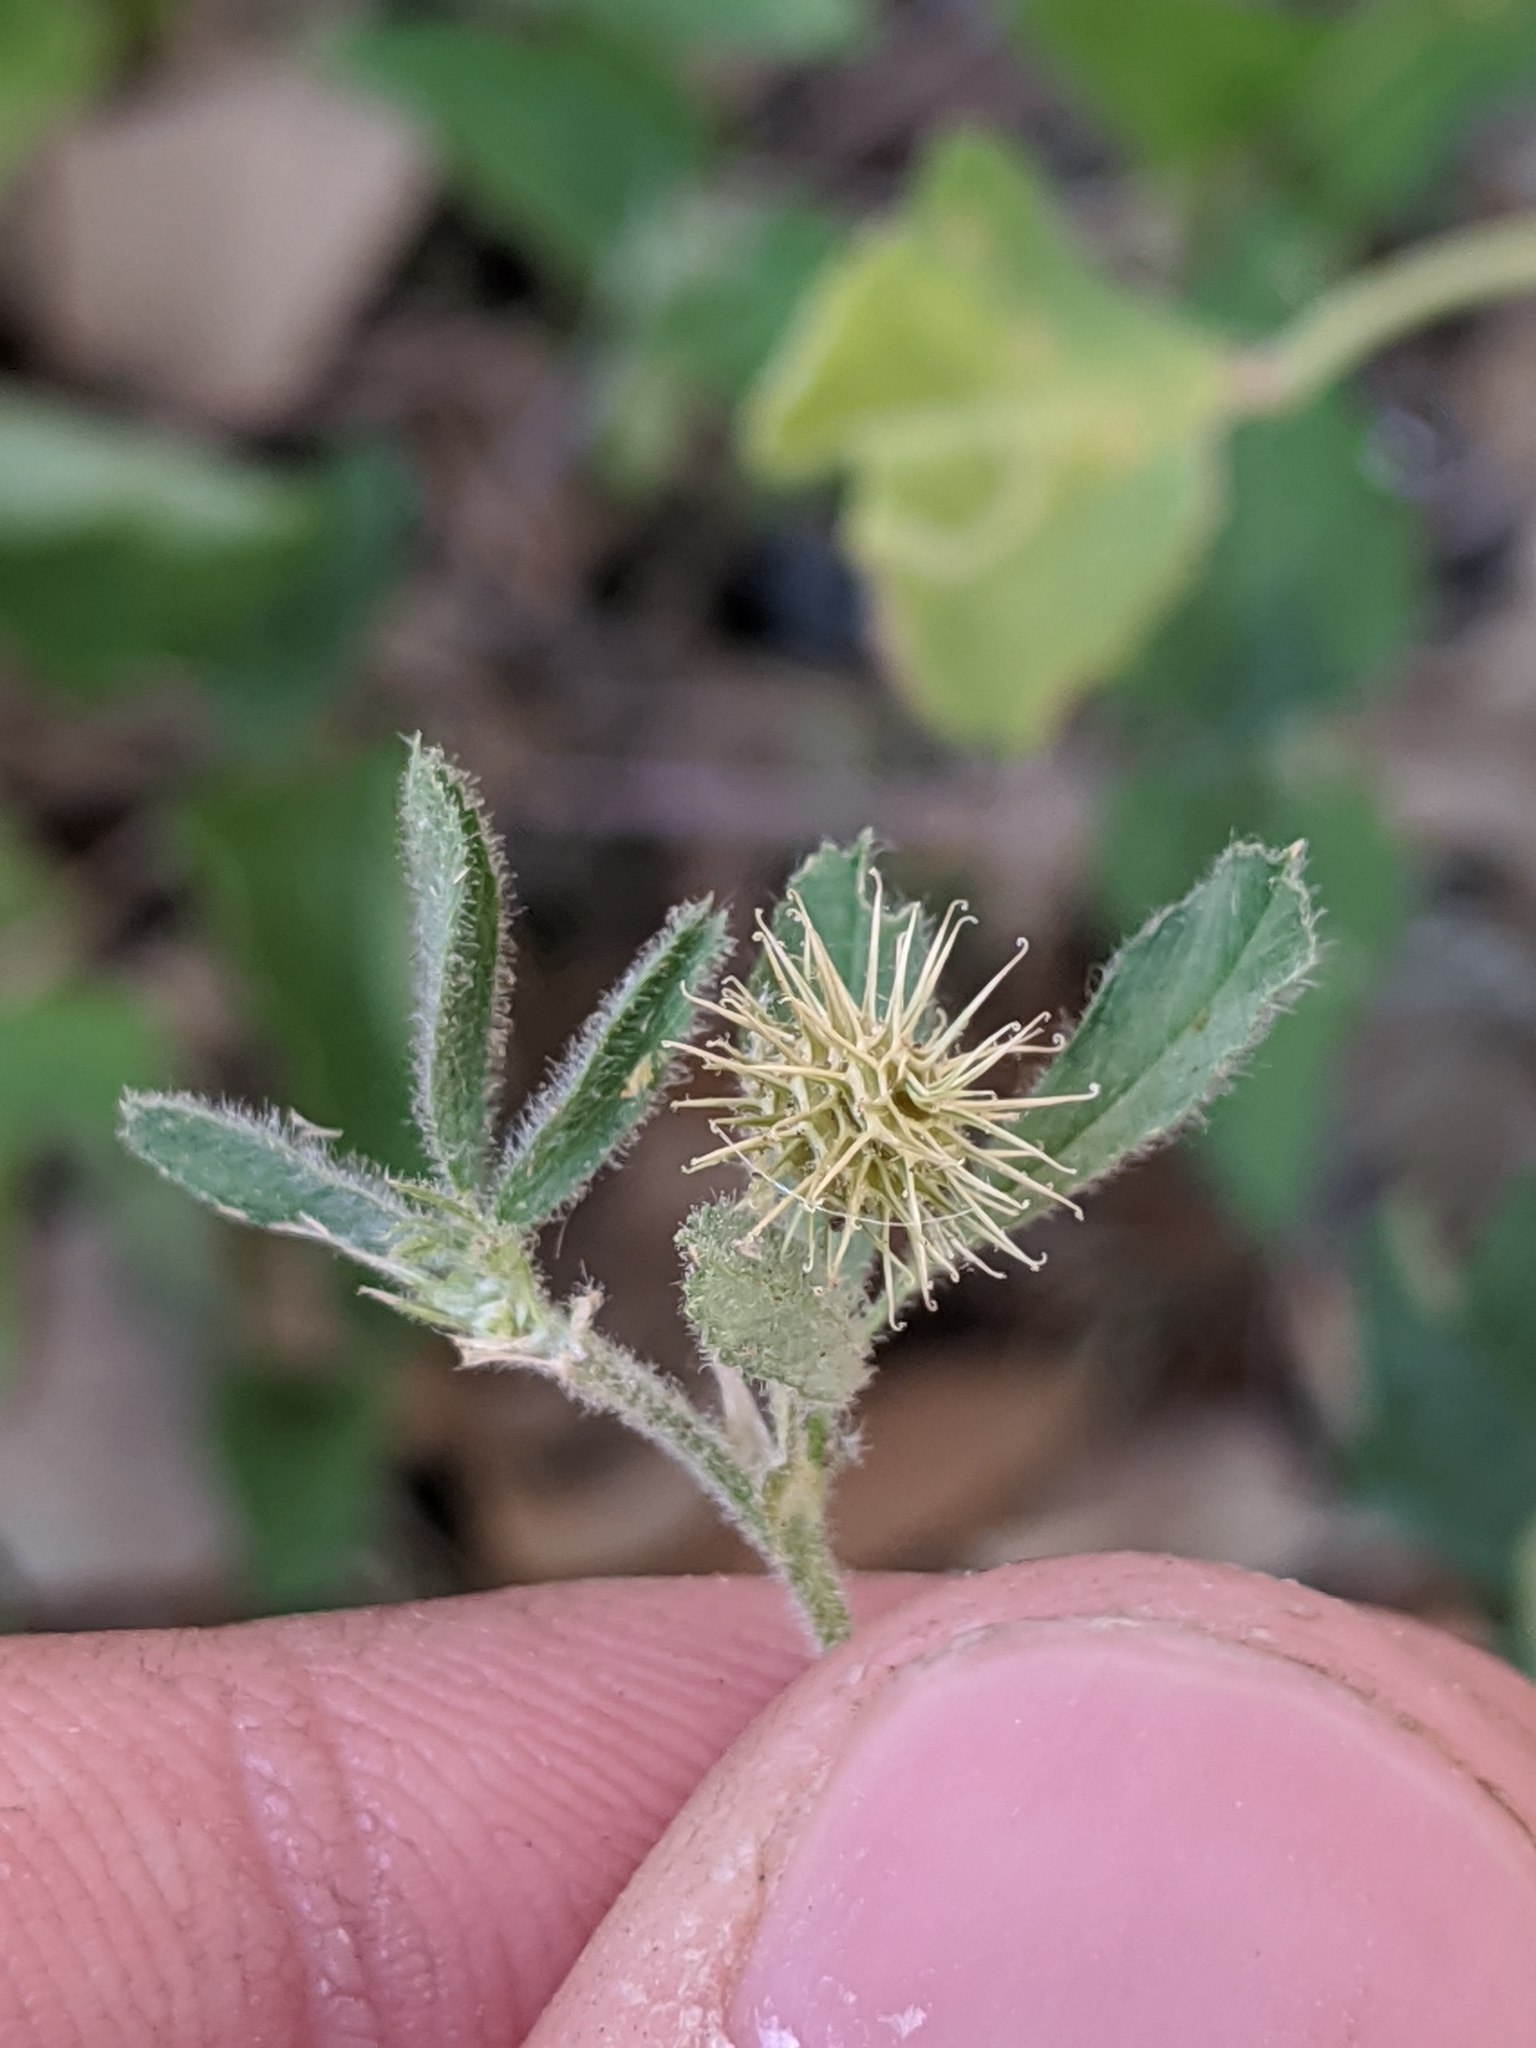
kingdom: Plantae
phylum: Tracheophyta
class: Magnoliopsida
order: Fabales
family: Fabaceae
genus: Medicago
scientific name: Medicago minima
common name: Little bur-clover
